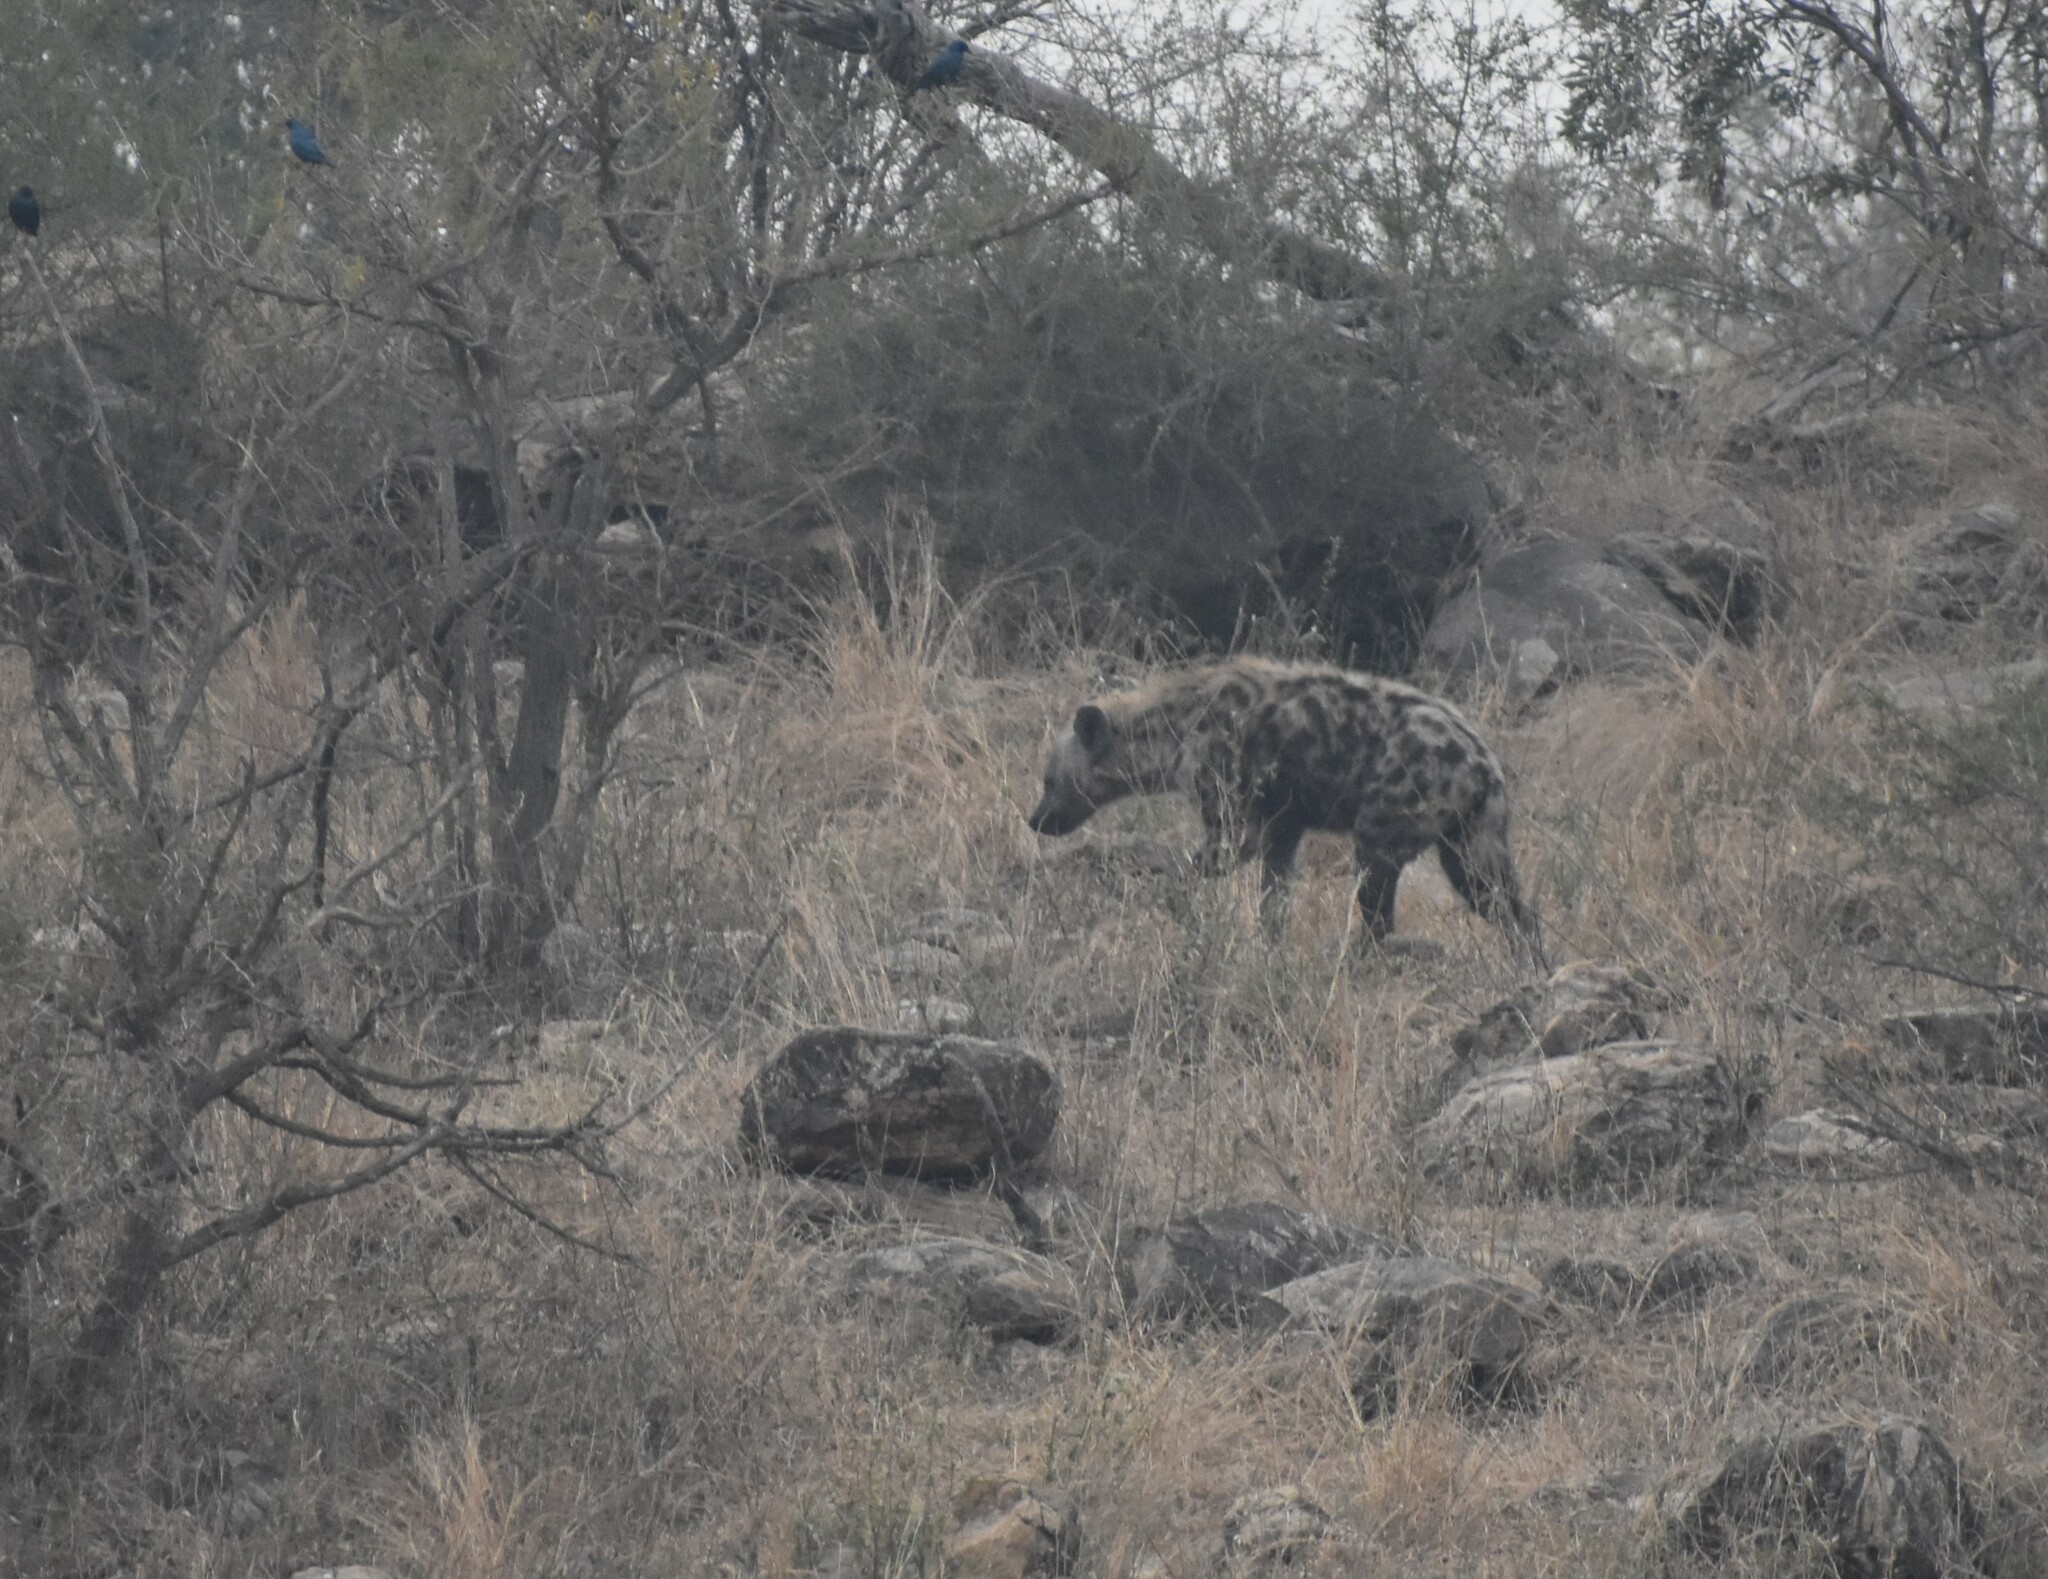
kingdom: Animalia
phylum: Chordata
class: Mammalia
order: Carnivora
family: Hyaenidae
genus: Crocuta
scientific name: Crocuta crocuta
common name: Spotted hyaena
